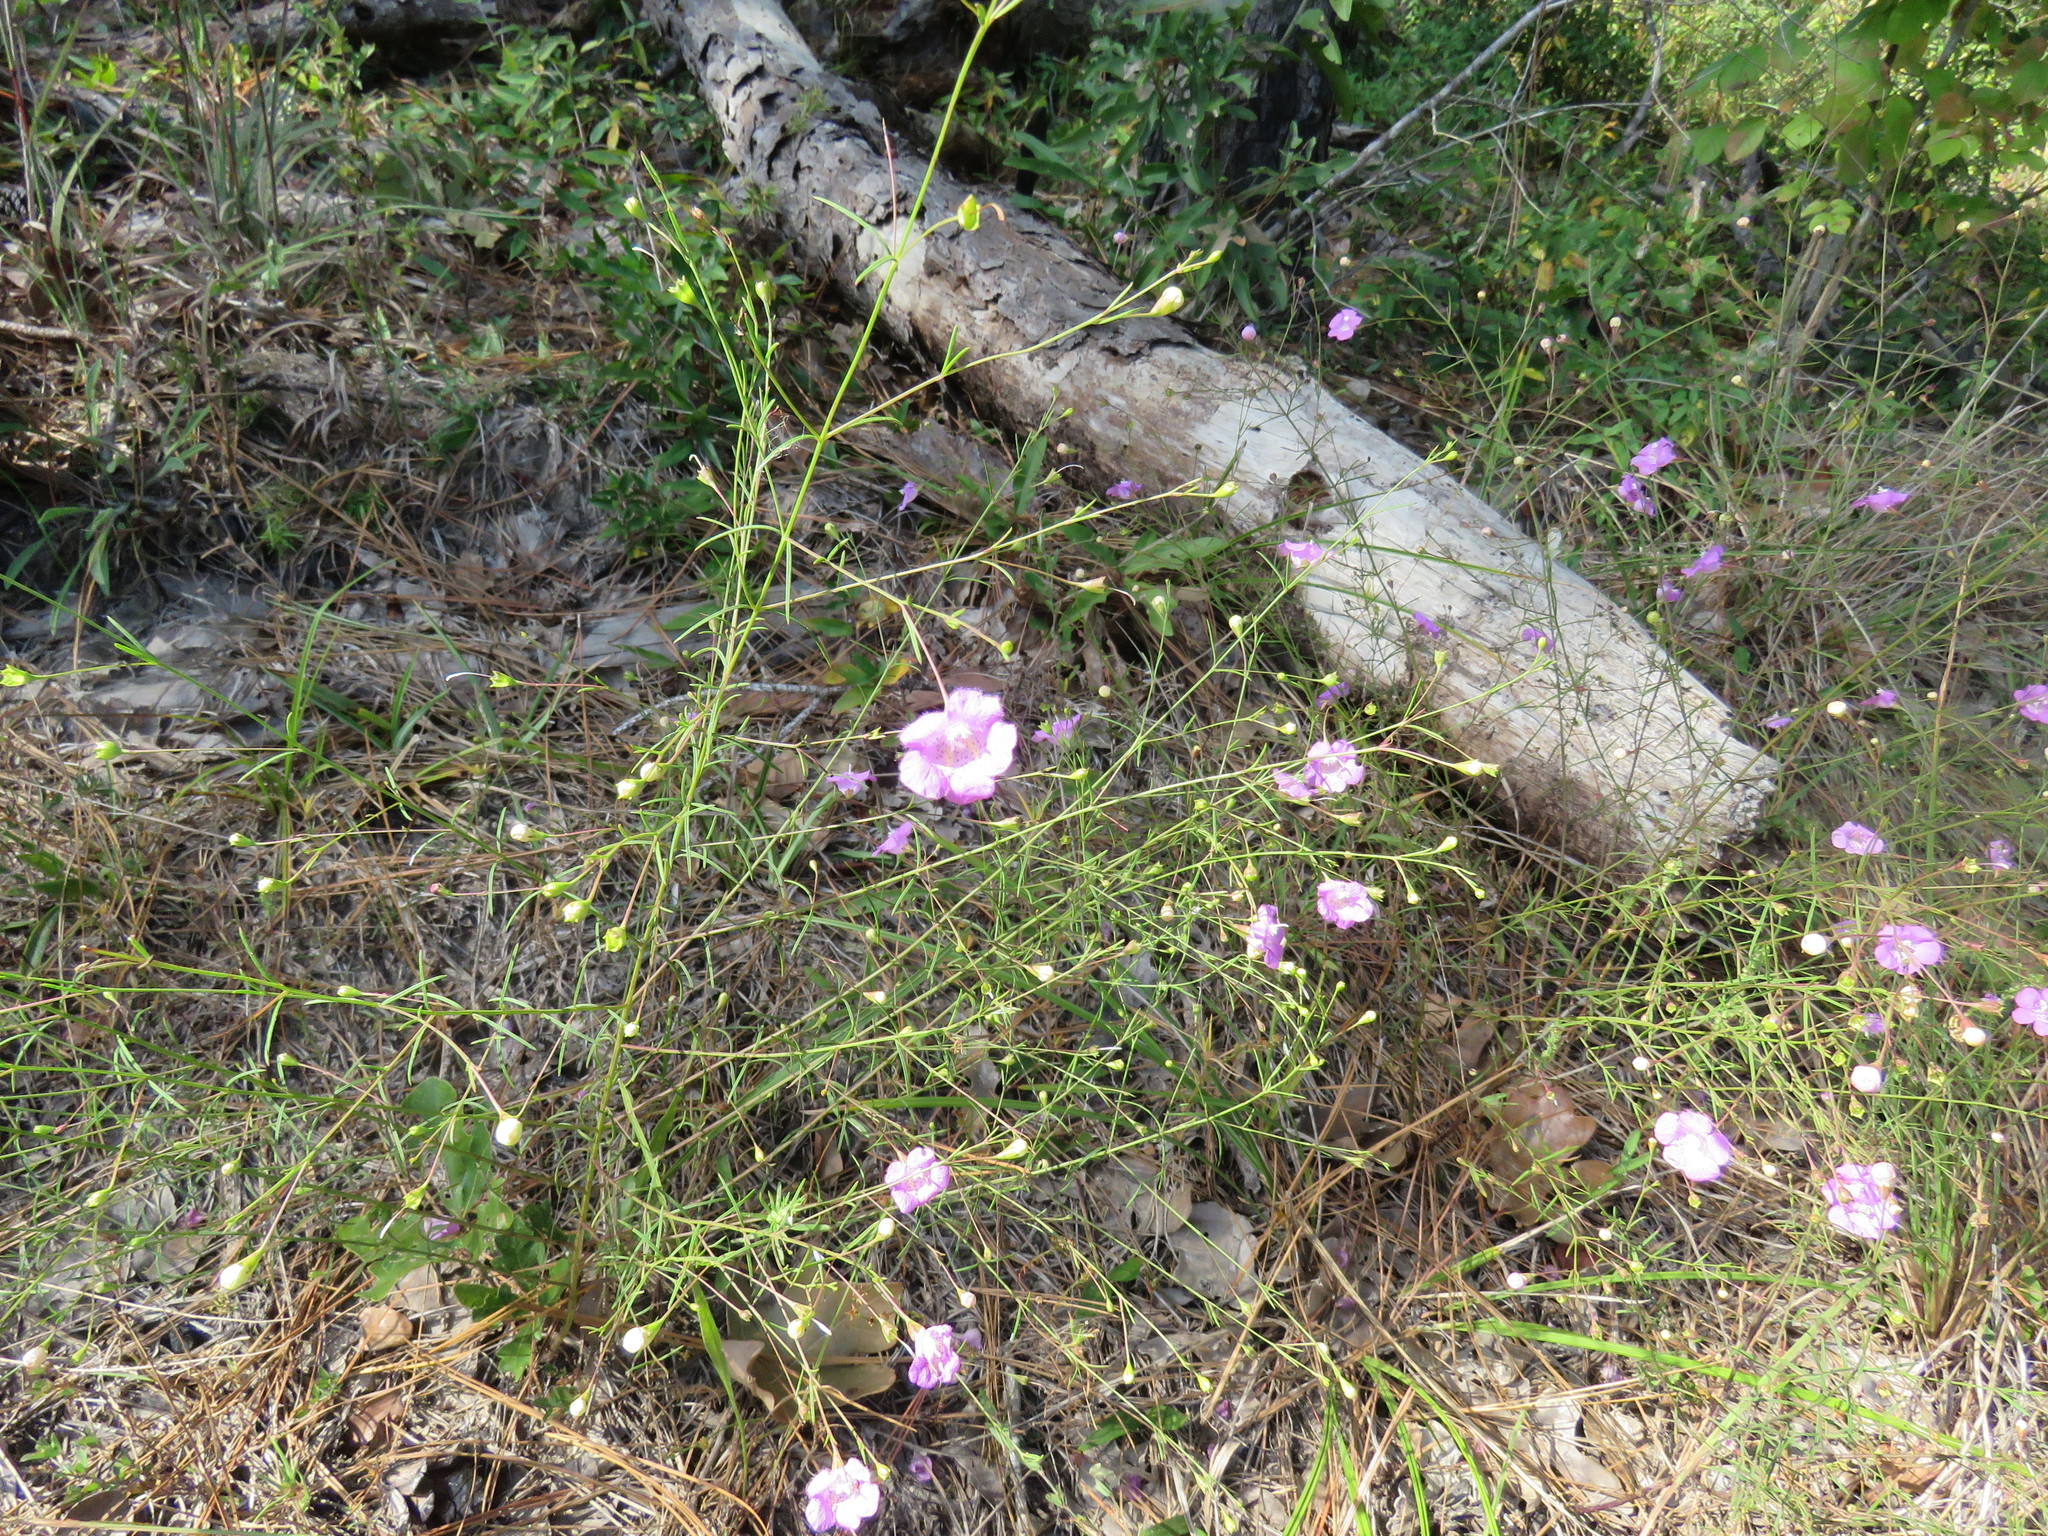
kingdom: Plantae
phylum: Tracheophyta
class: Magnoliopsida
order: Lamiales
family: Orobanchaceae
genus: Agalinis
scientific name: Agalinis gattingeri
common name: Gattinger's agalinis
